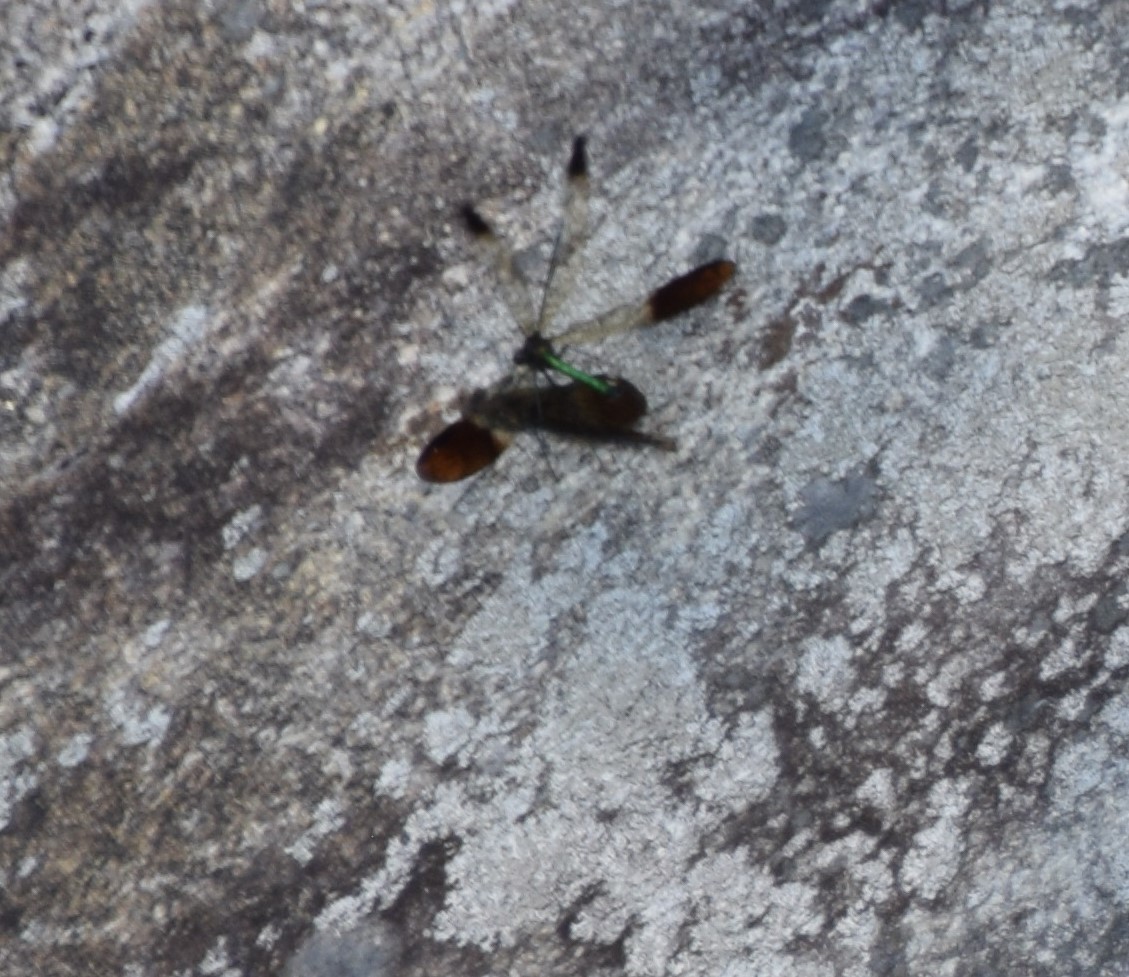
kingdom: Animalia
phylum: Arthropoda
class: Insecta
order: Odonata
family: Calopterygidae
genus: Calopteryx
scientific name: Calopteryx aequabilis
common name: River jewelwing
